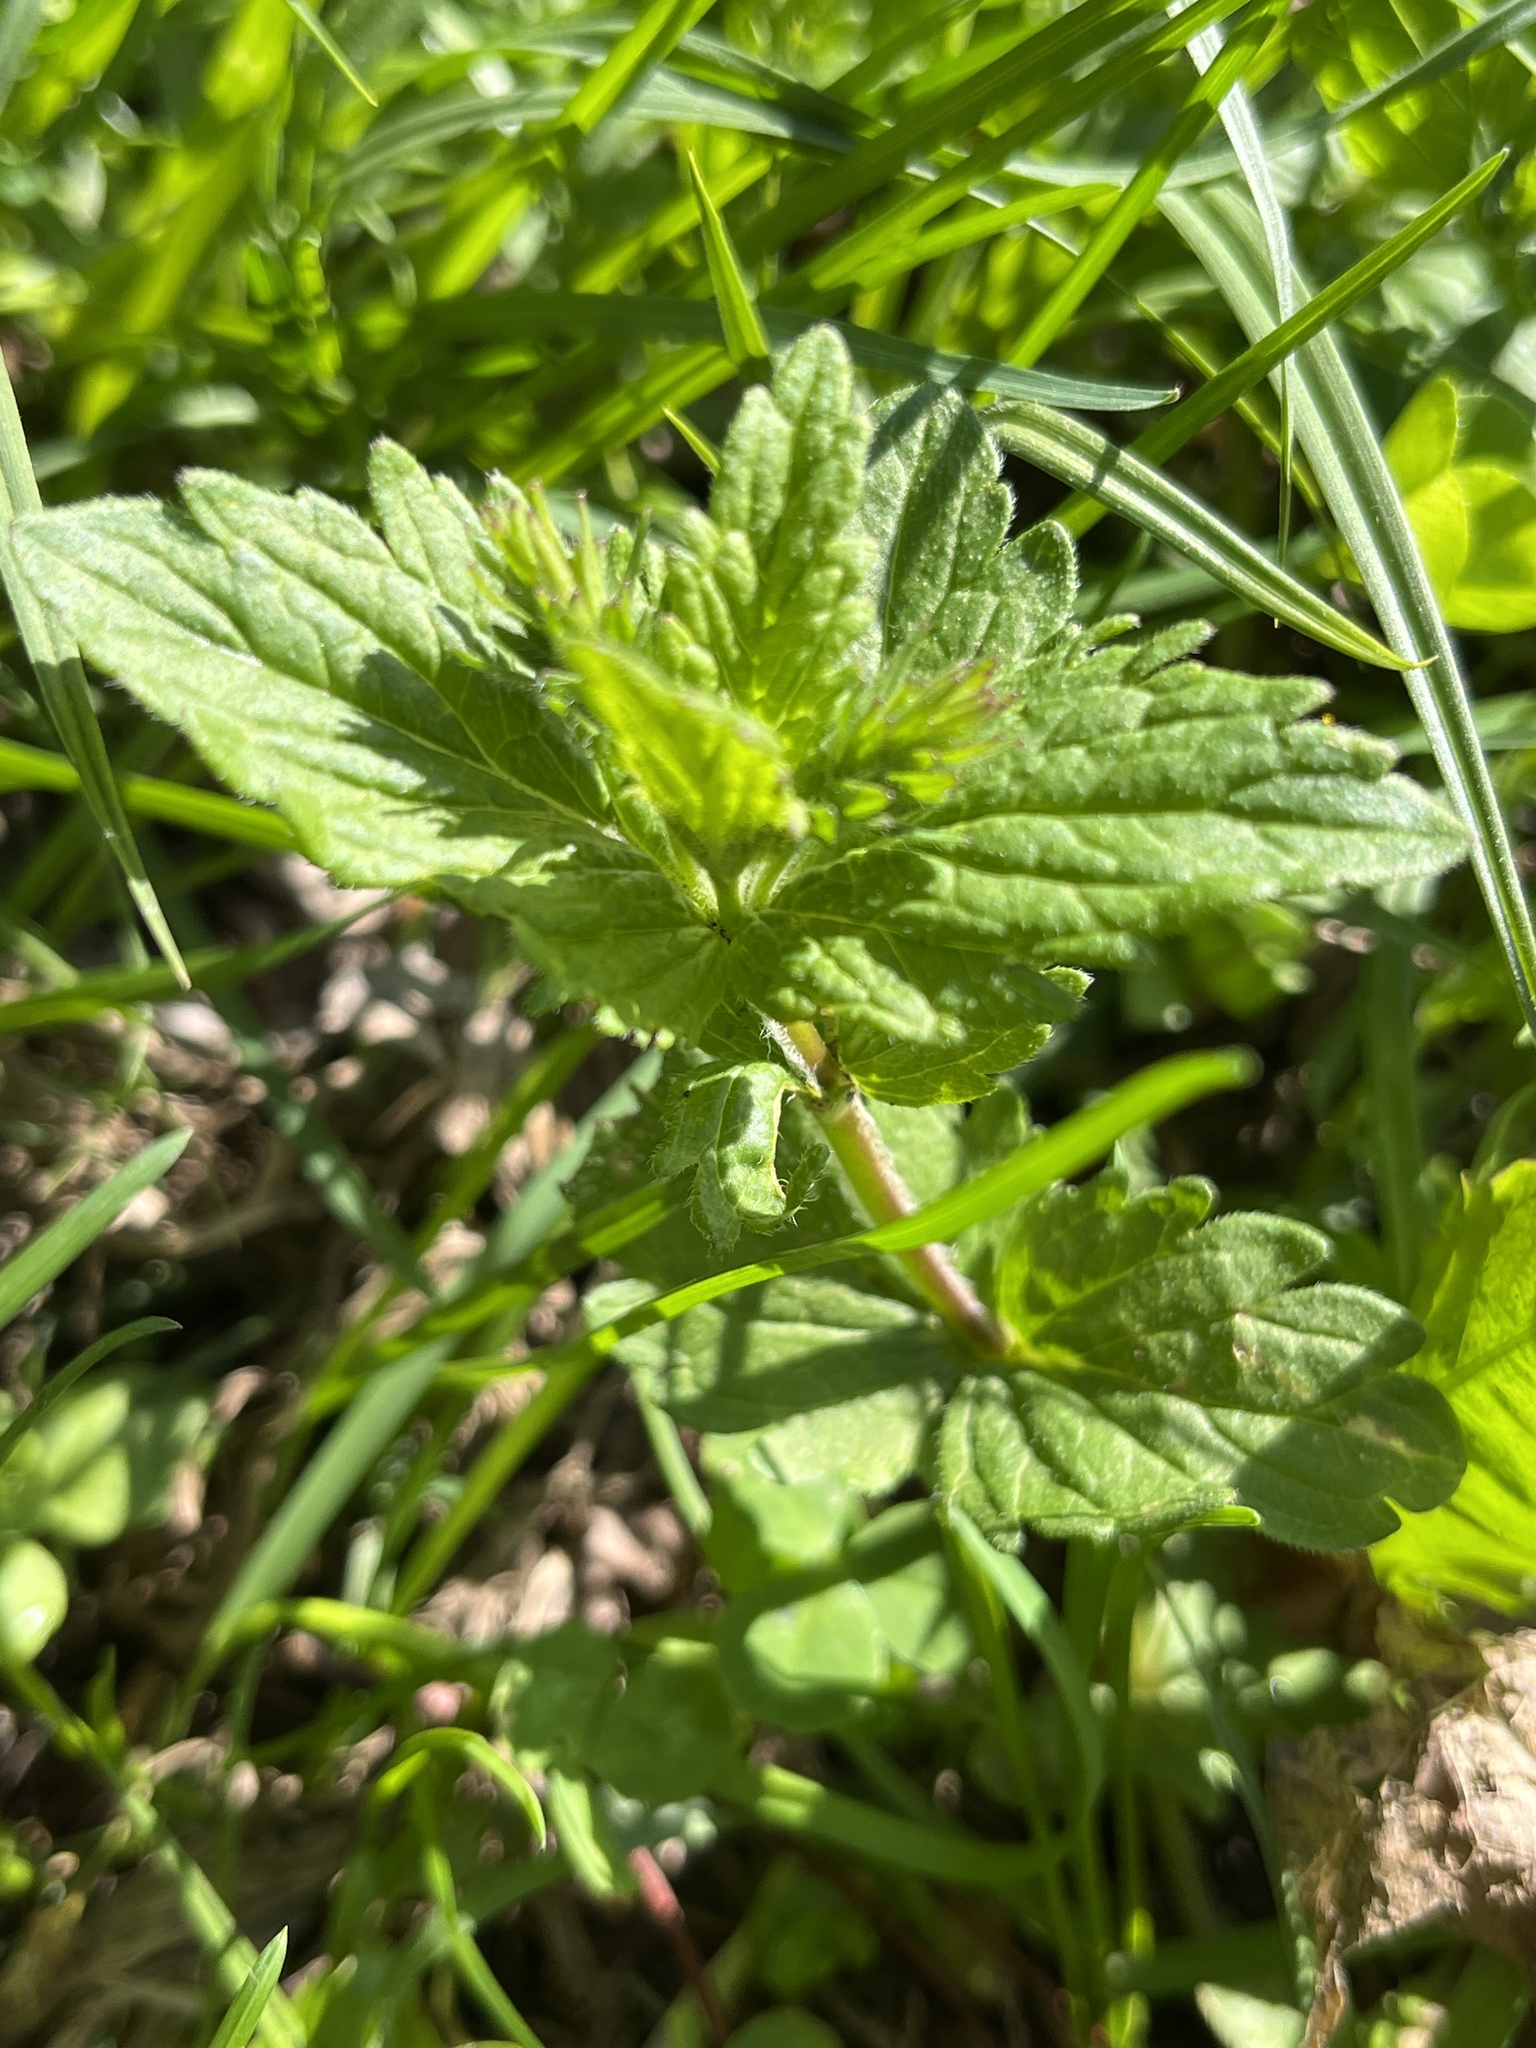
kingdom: Plantae
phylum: Tracheophyta
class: Magnoliopsida
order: Lamiales
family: Plantaginaceae
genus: Veronica
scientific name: Veronica chamaedrys
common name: Germander speedwell
